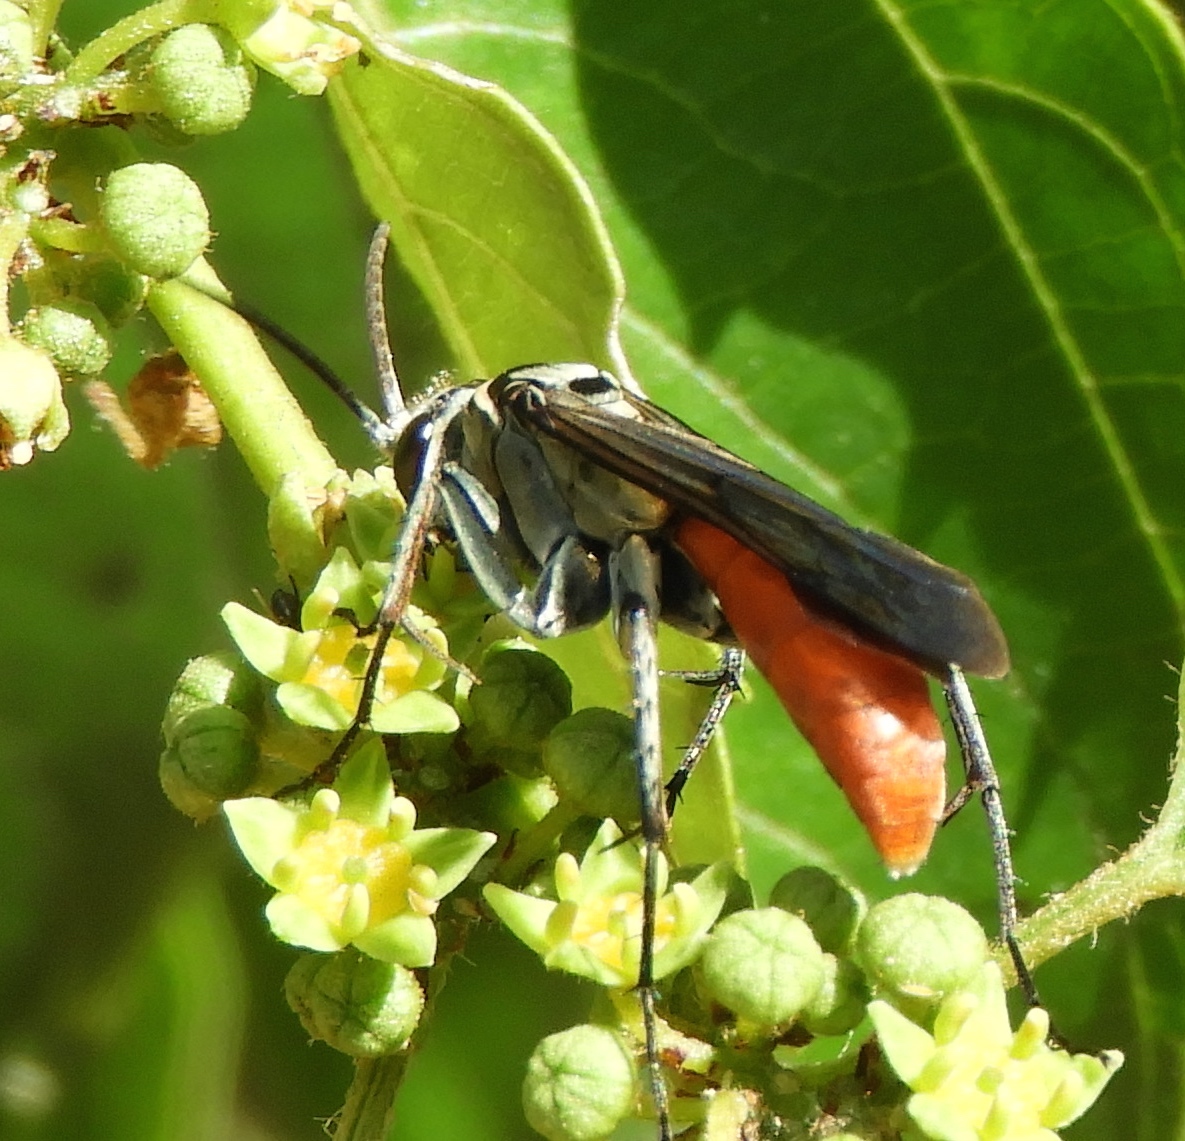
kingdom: Animalia
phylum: Arthropoda
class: Insecta
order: Hymenoptera
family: Pompilidae
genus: Xerochares
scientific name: Xerochares expulsus
